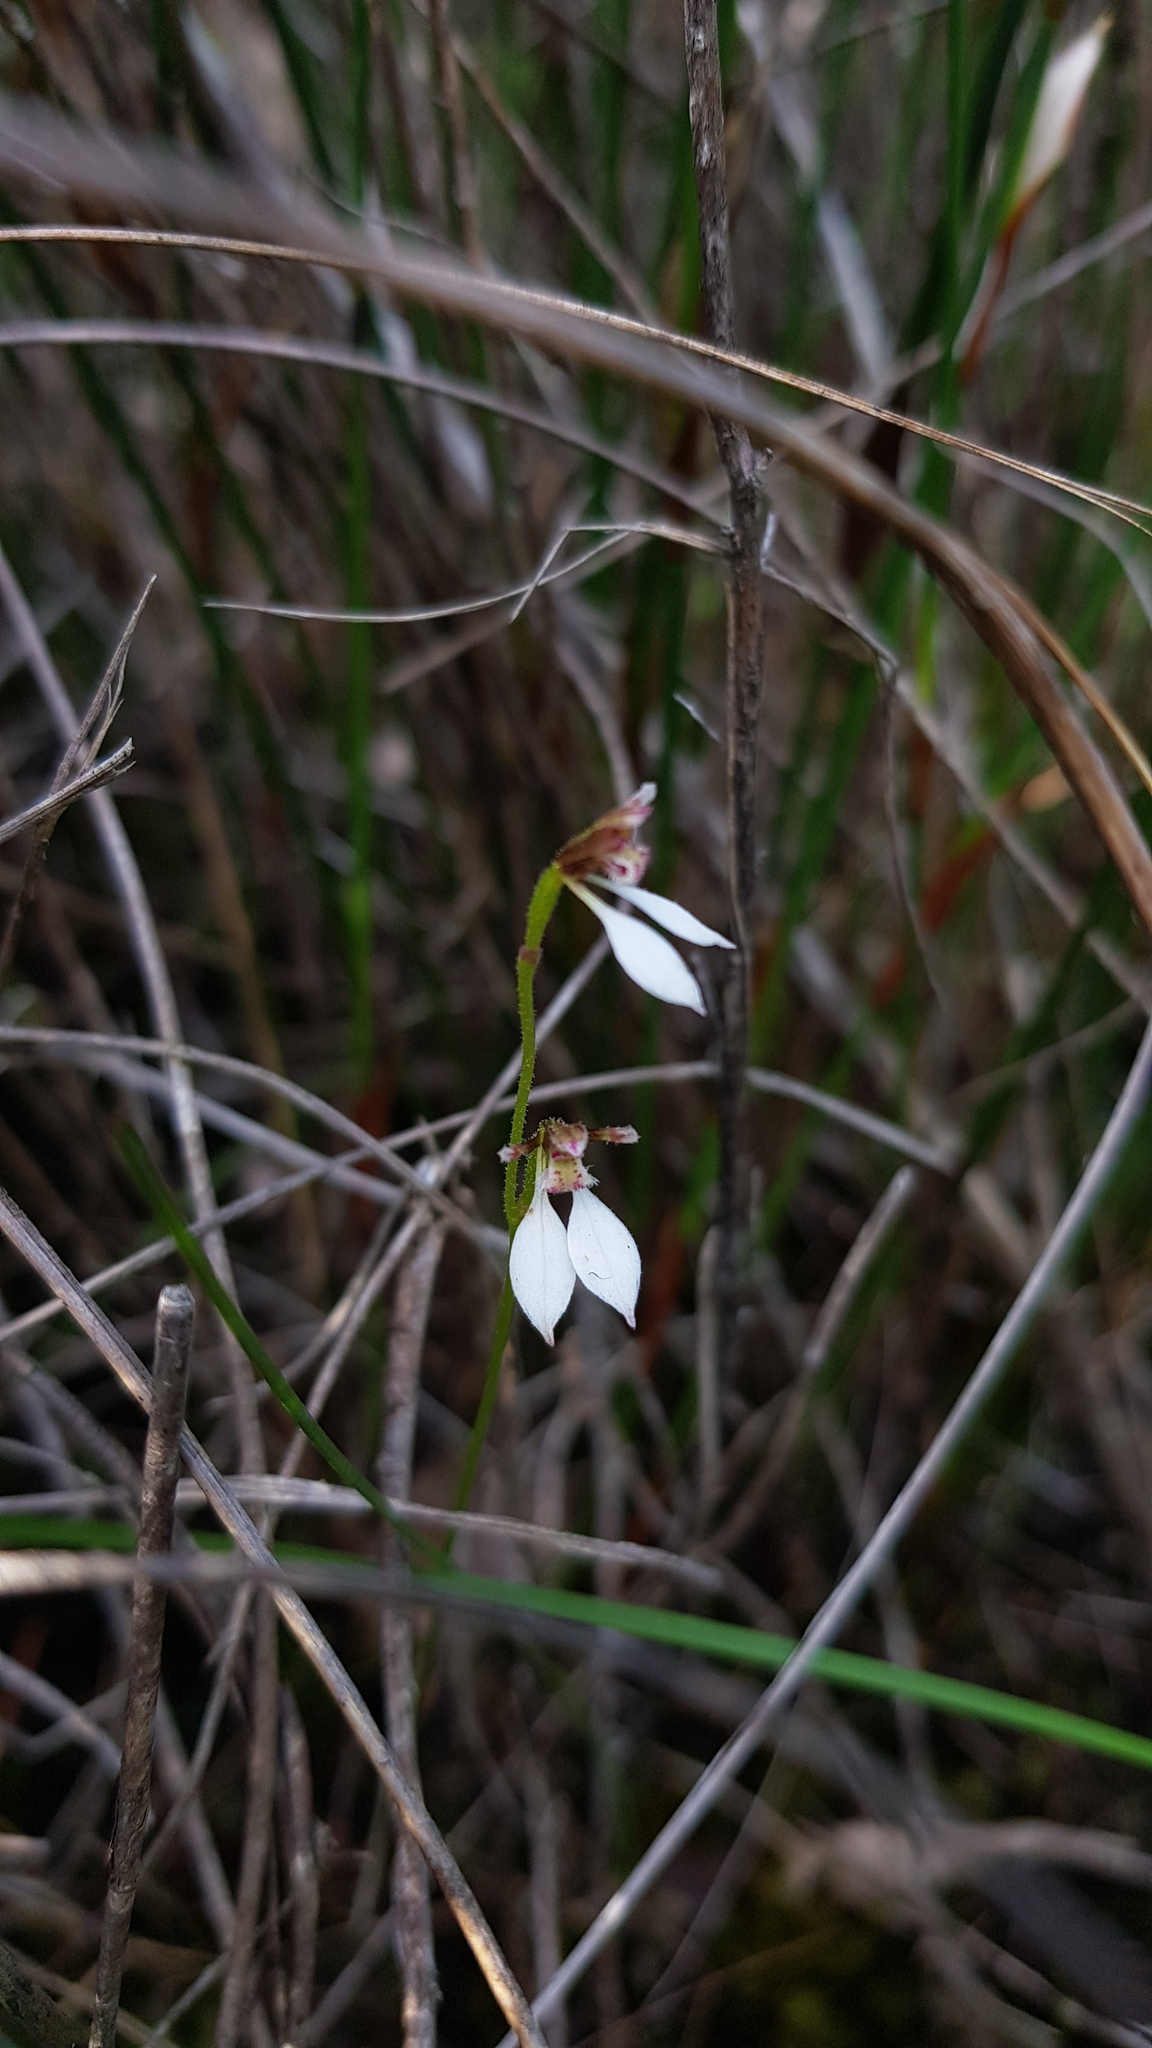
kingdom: Plantae
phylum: Tracheophyta
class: Liliopsida
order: Asparagales
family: Orchidaceae
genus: Eriochilus
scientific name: Eriochilus petricola
